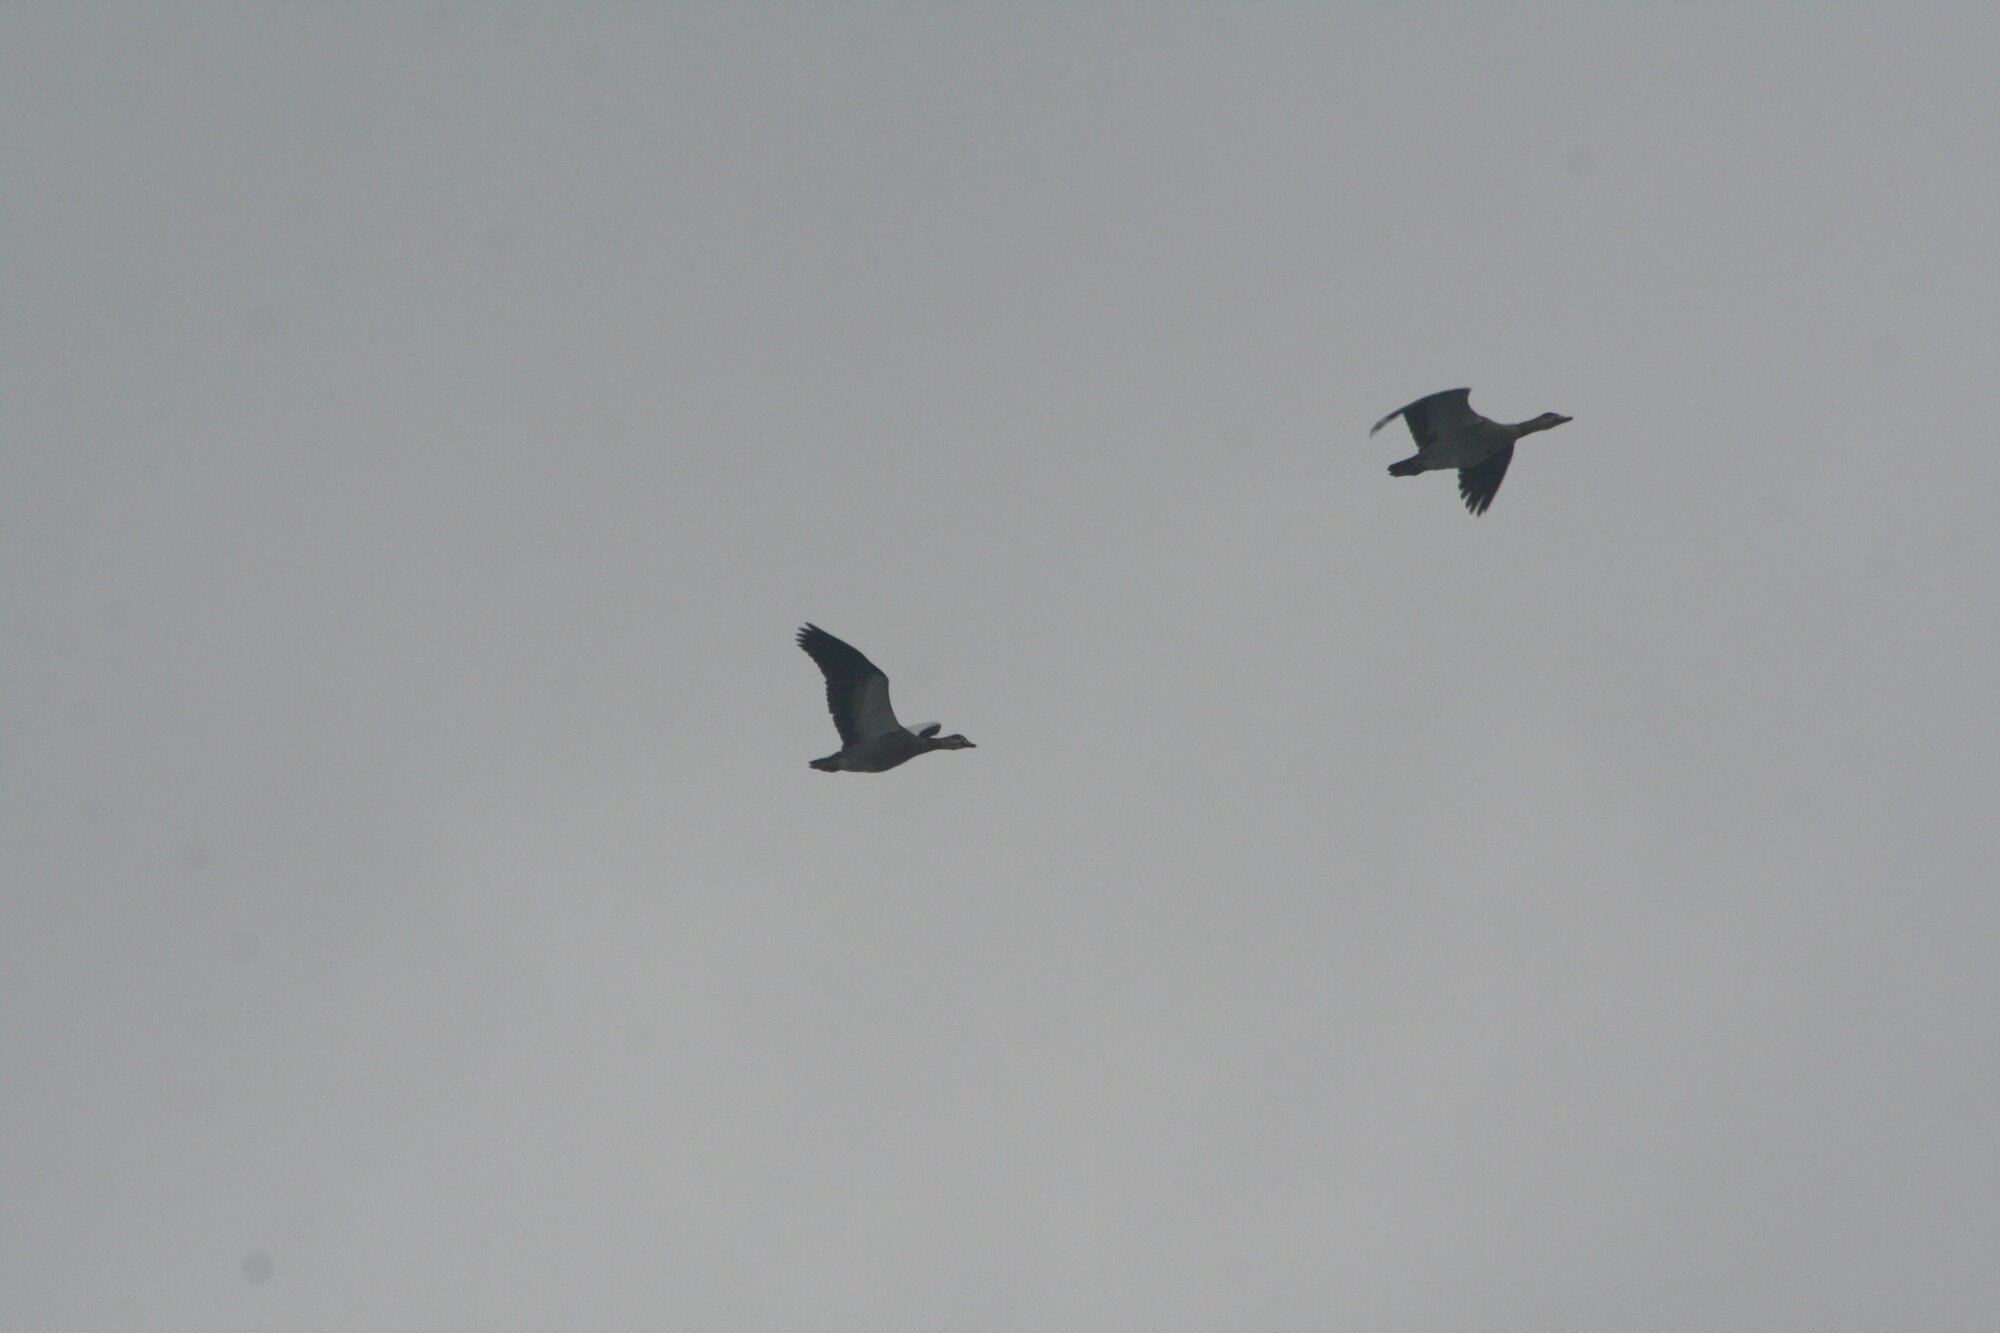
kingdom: Animalia
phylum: Chordata
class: Aves
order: Anseriformes
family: Anatidae
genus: Alopochen
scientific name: Alopochen aegyptiaca
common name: Egyptian goose
